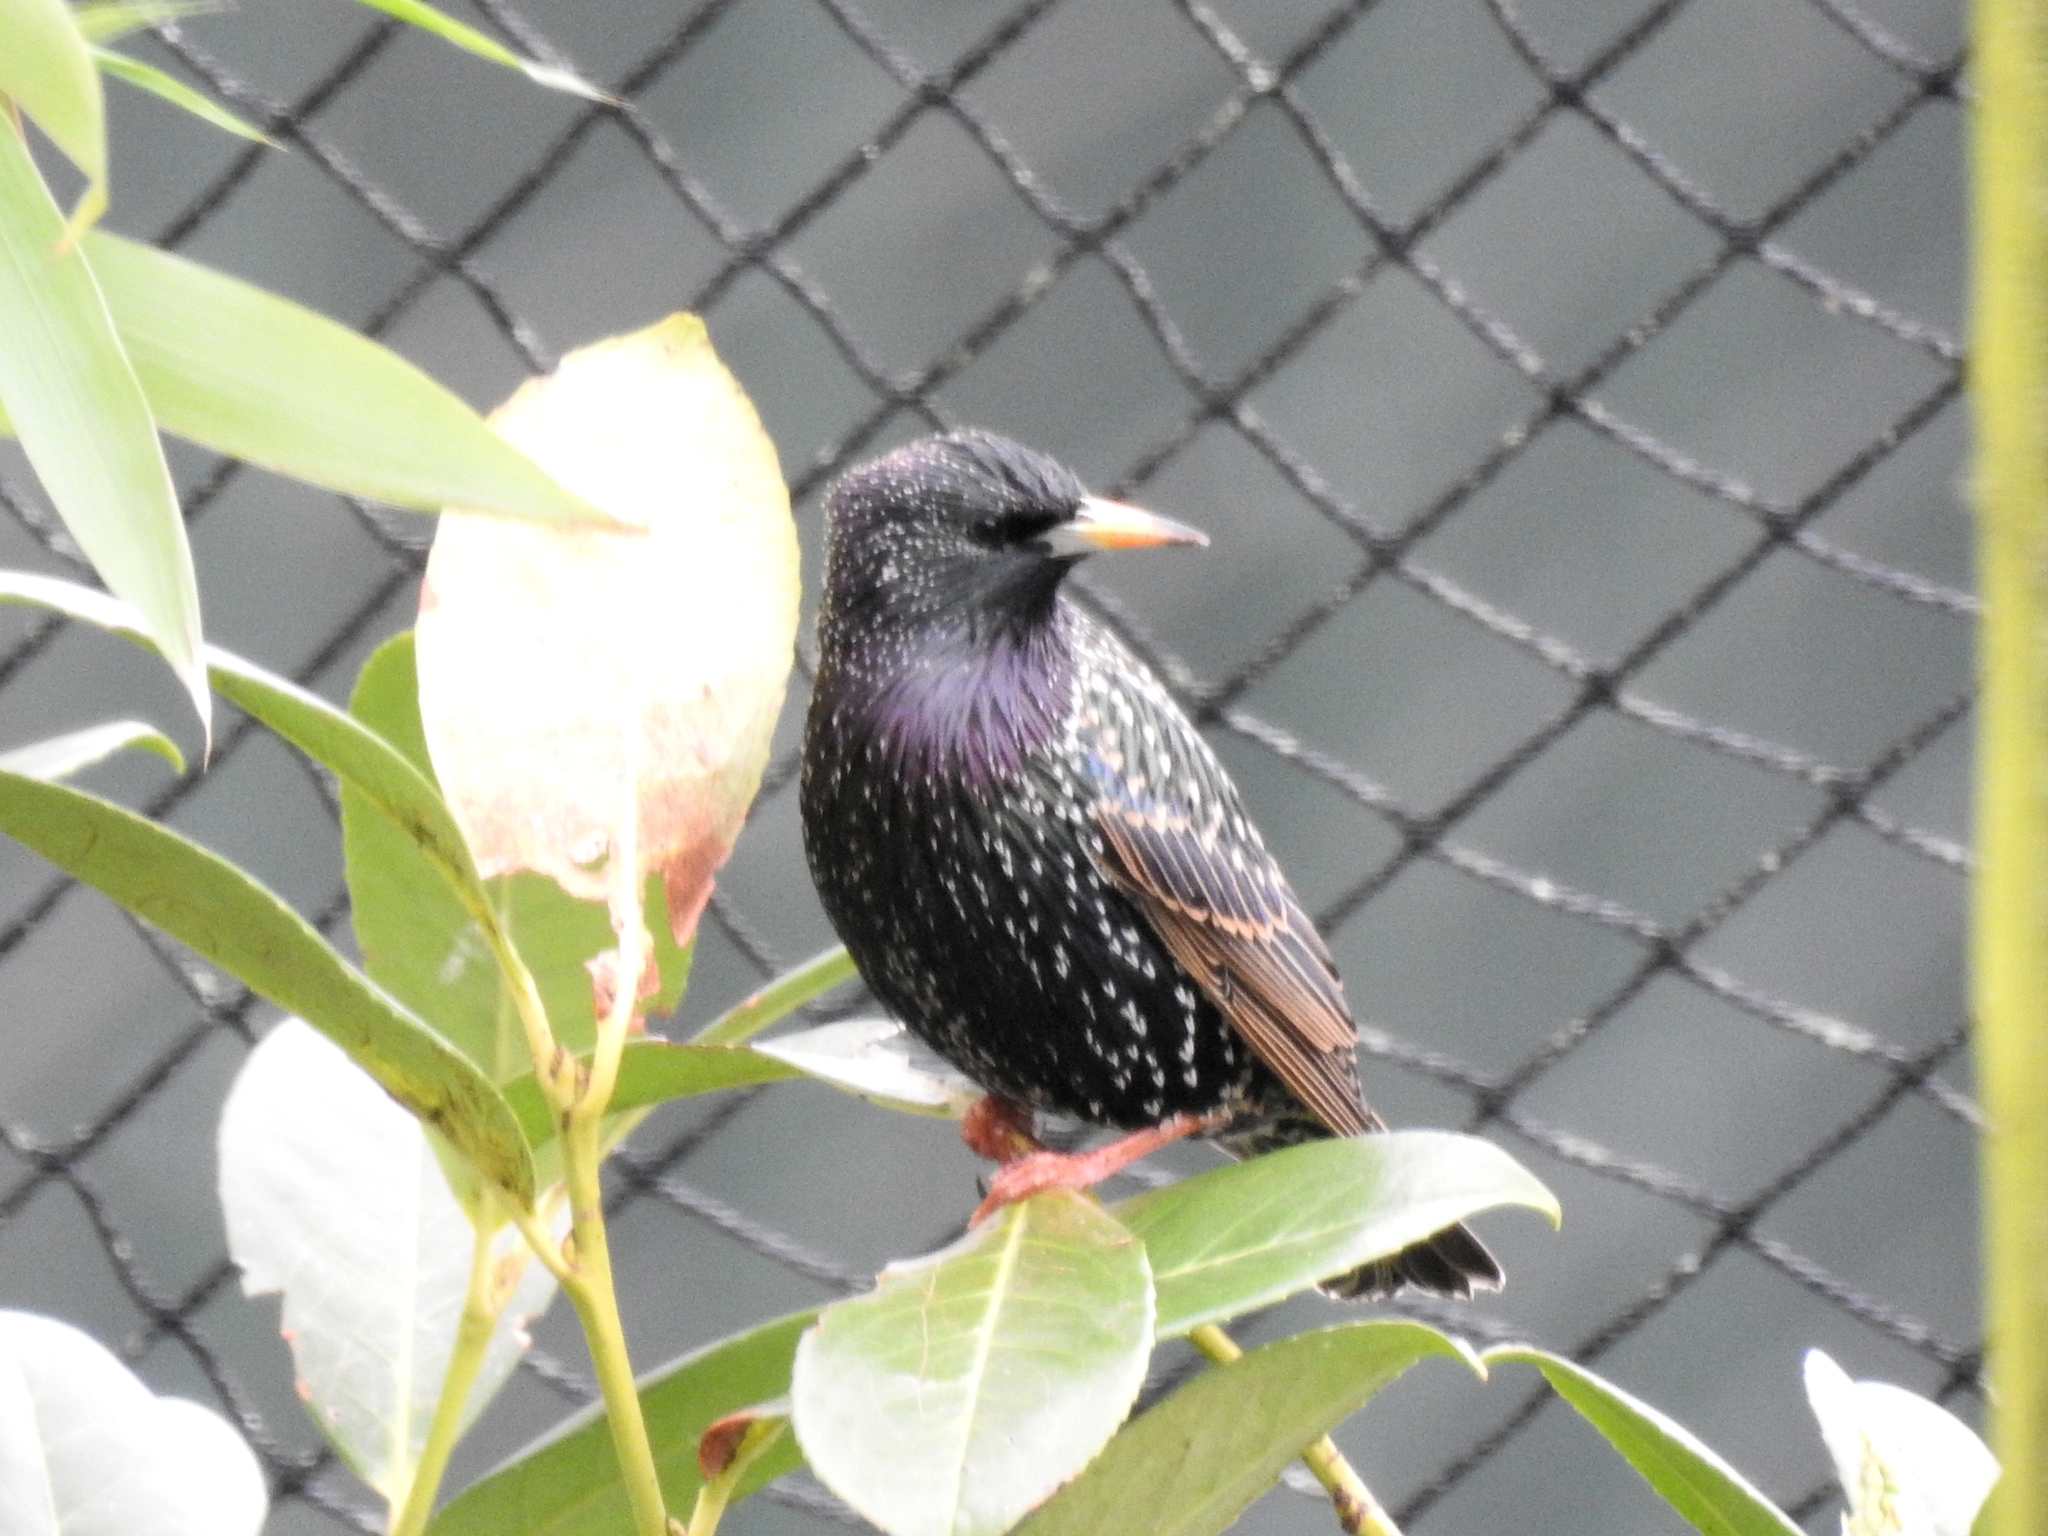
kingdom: Animalia
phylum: Chordata
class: Aves
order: Passeriformes
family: Sturnidae
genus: Sturnus
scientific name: Sturnus vulgaris
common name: Common starling
